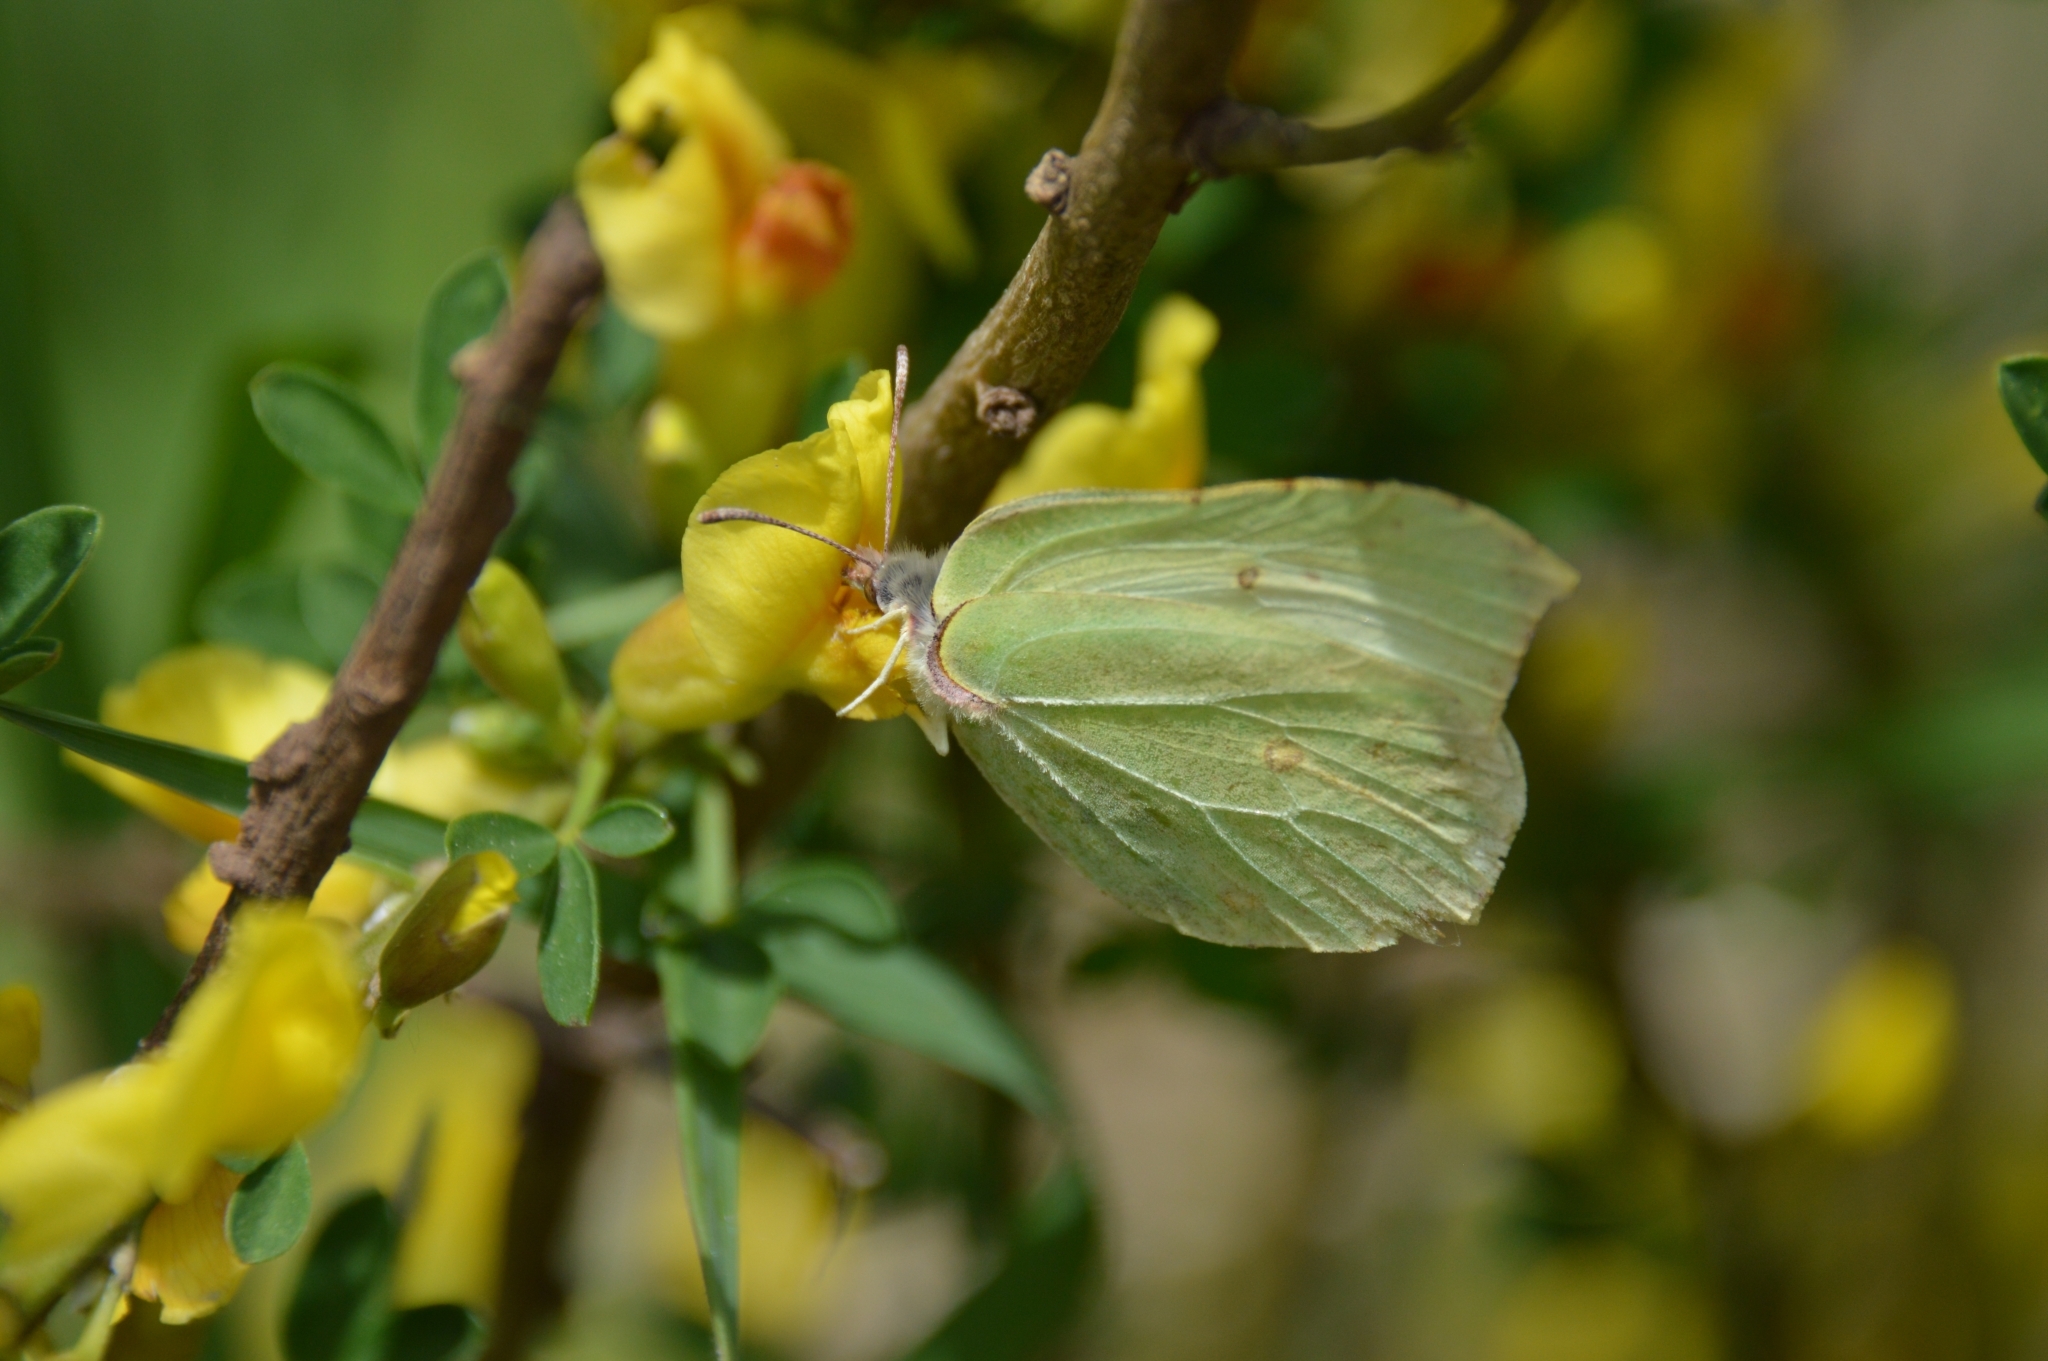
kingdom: Animalia
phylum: Arthropoda
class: Insecta
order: Lepidoptera
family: Pieridae
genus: Gonepteryx
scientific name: Gonepteryx rhamni
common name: Brimstone
